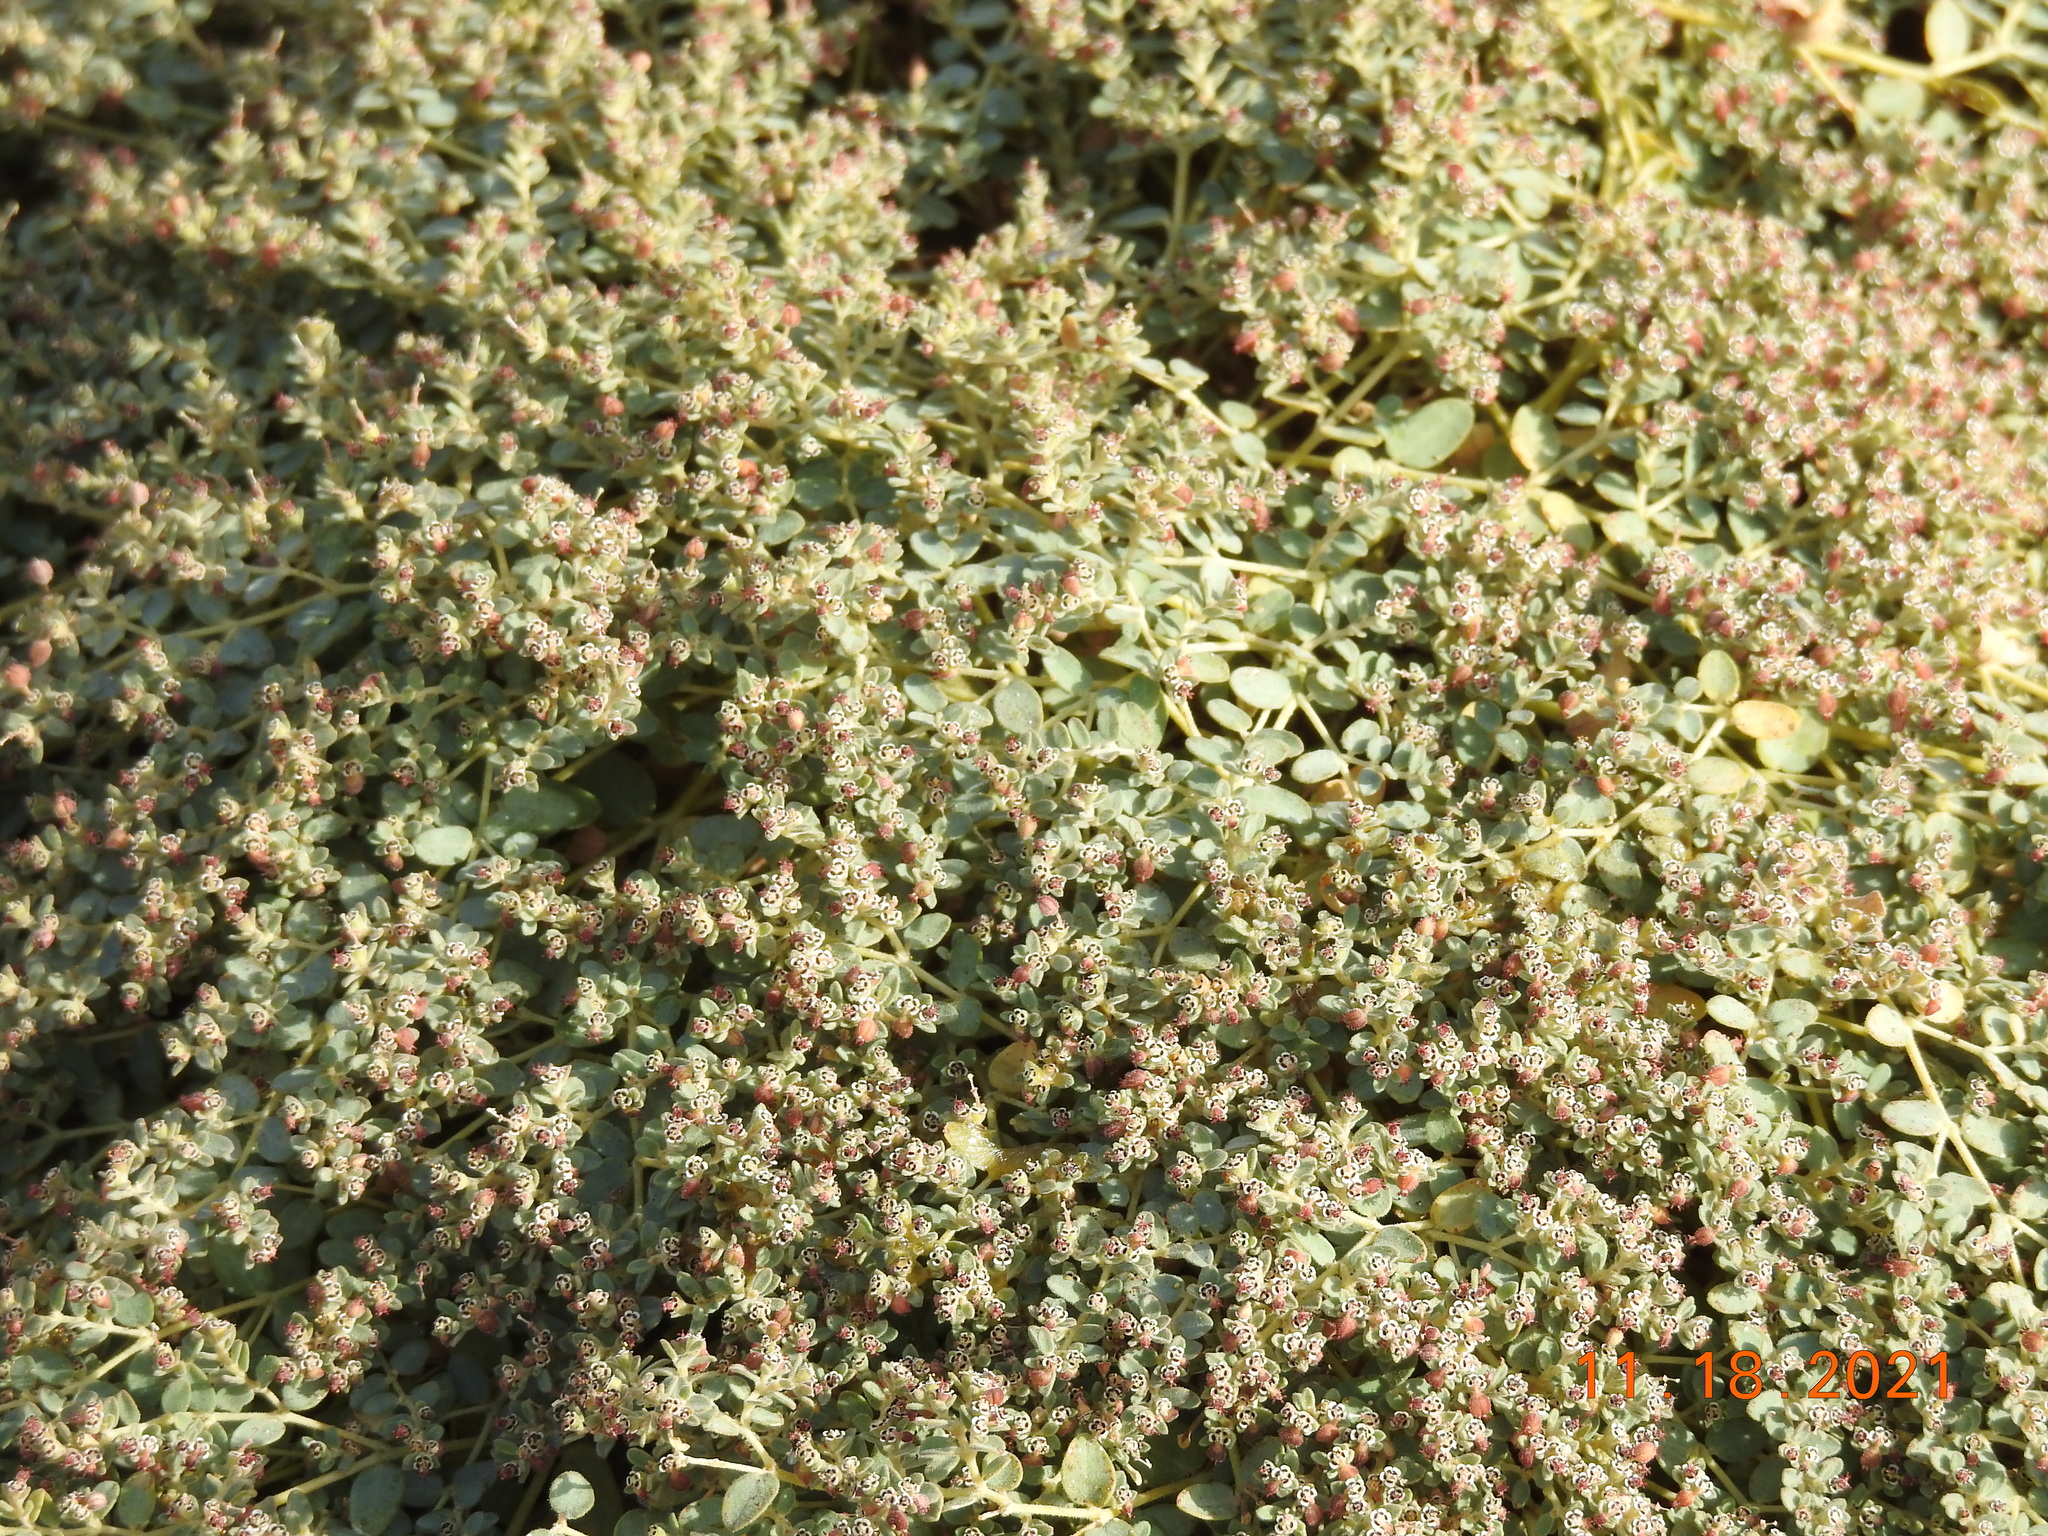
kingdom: Plantae
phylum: Tracheophyta
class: Magnoliopsida
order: Malpighiales
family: Euphorbiaceae
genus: Euphorbia
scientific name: Euphorbia polycarpa
